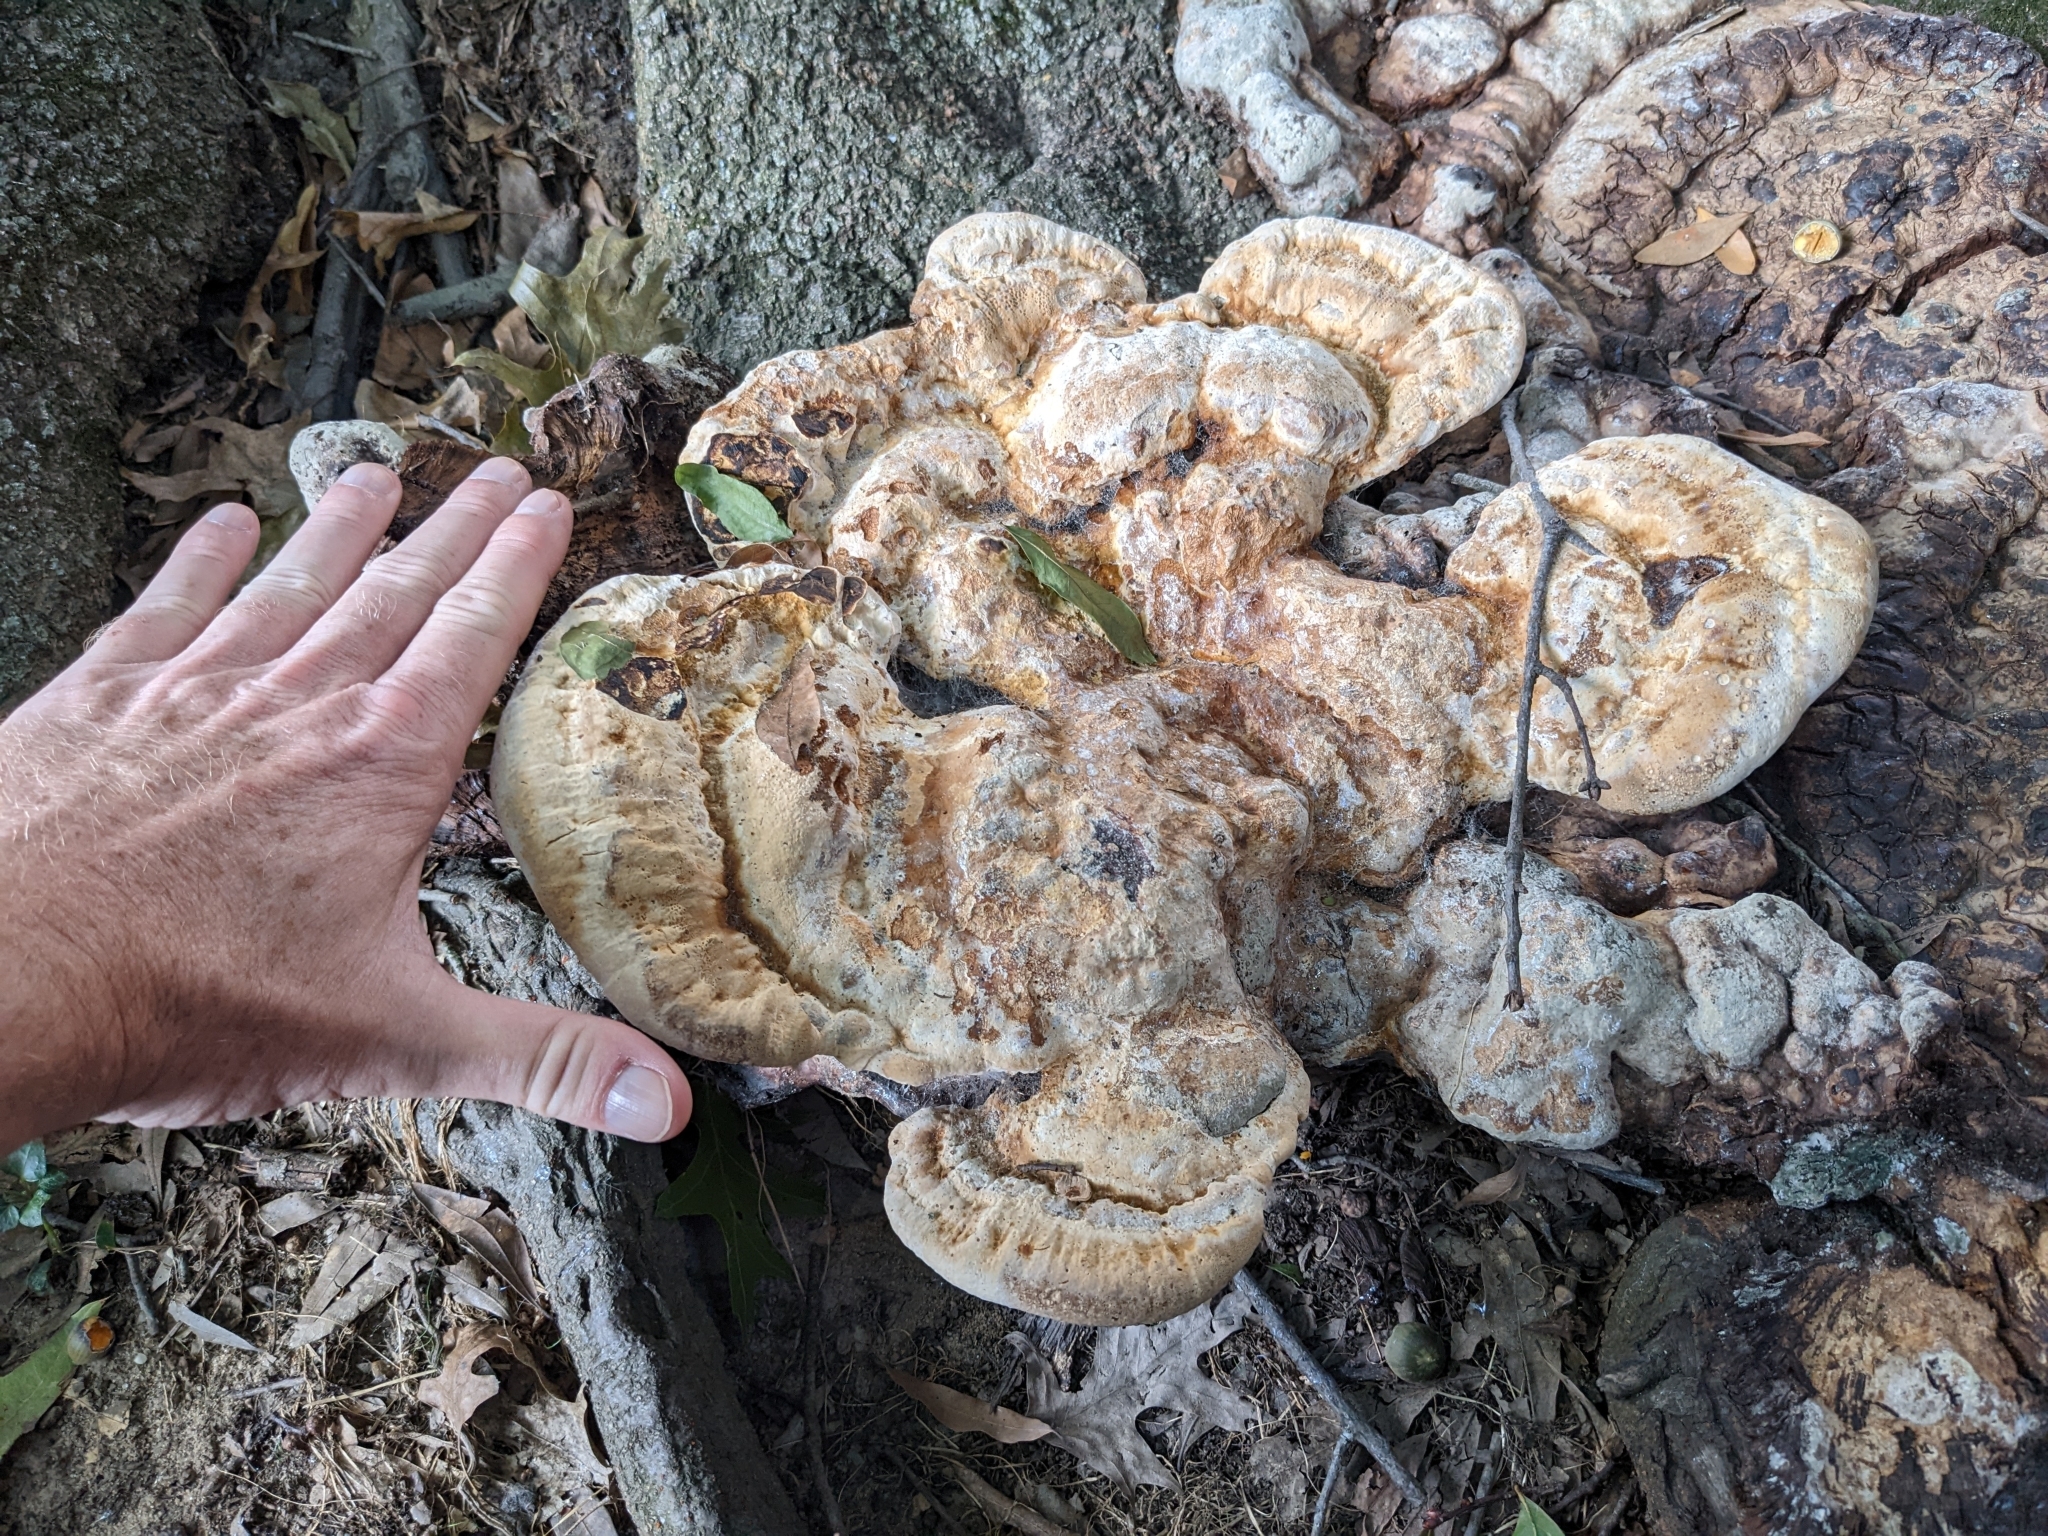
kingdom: Fungi
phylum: Basidiomycota
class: Agaricomycetes
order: Hymenochaetales
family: Hymenochaetaceae
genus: Pseudoinonotus
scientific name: Pseudoinonotus dryadeus
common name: Oak bracket
